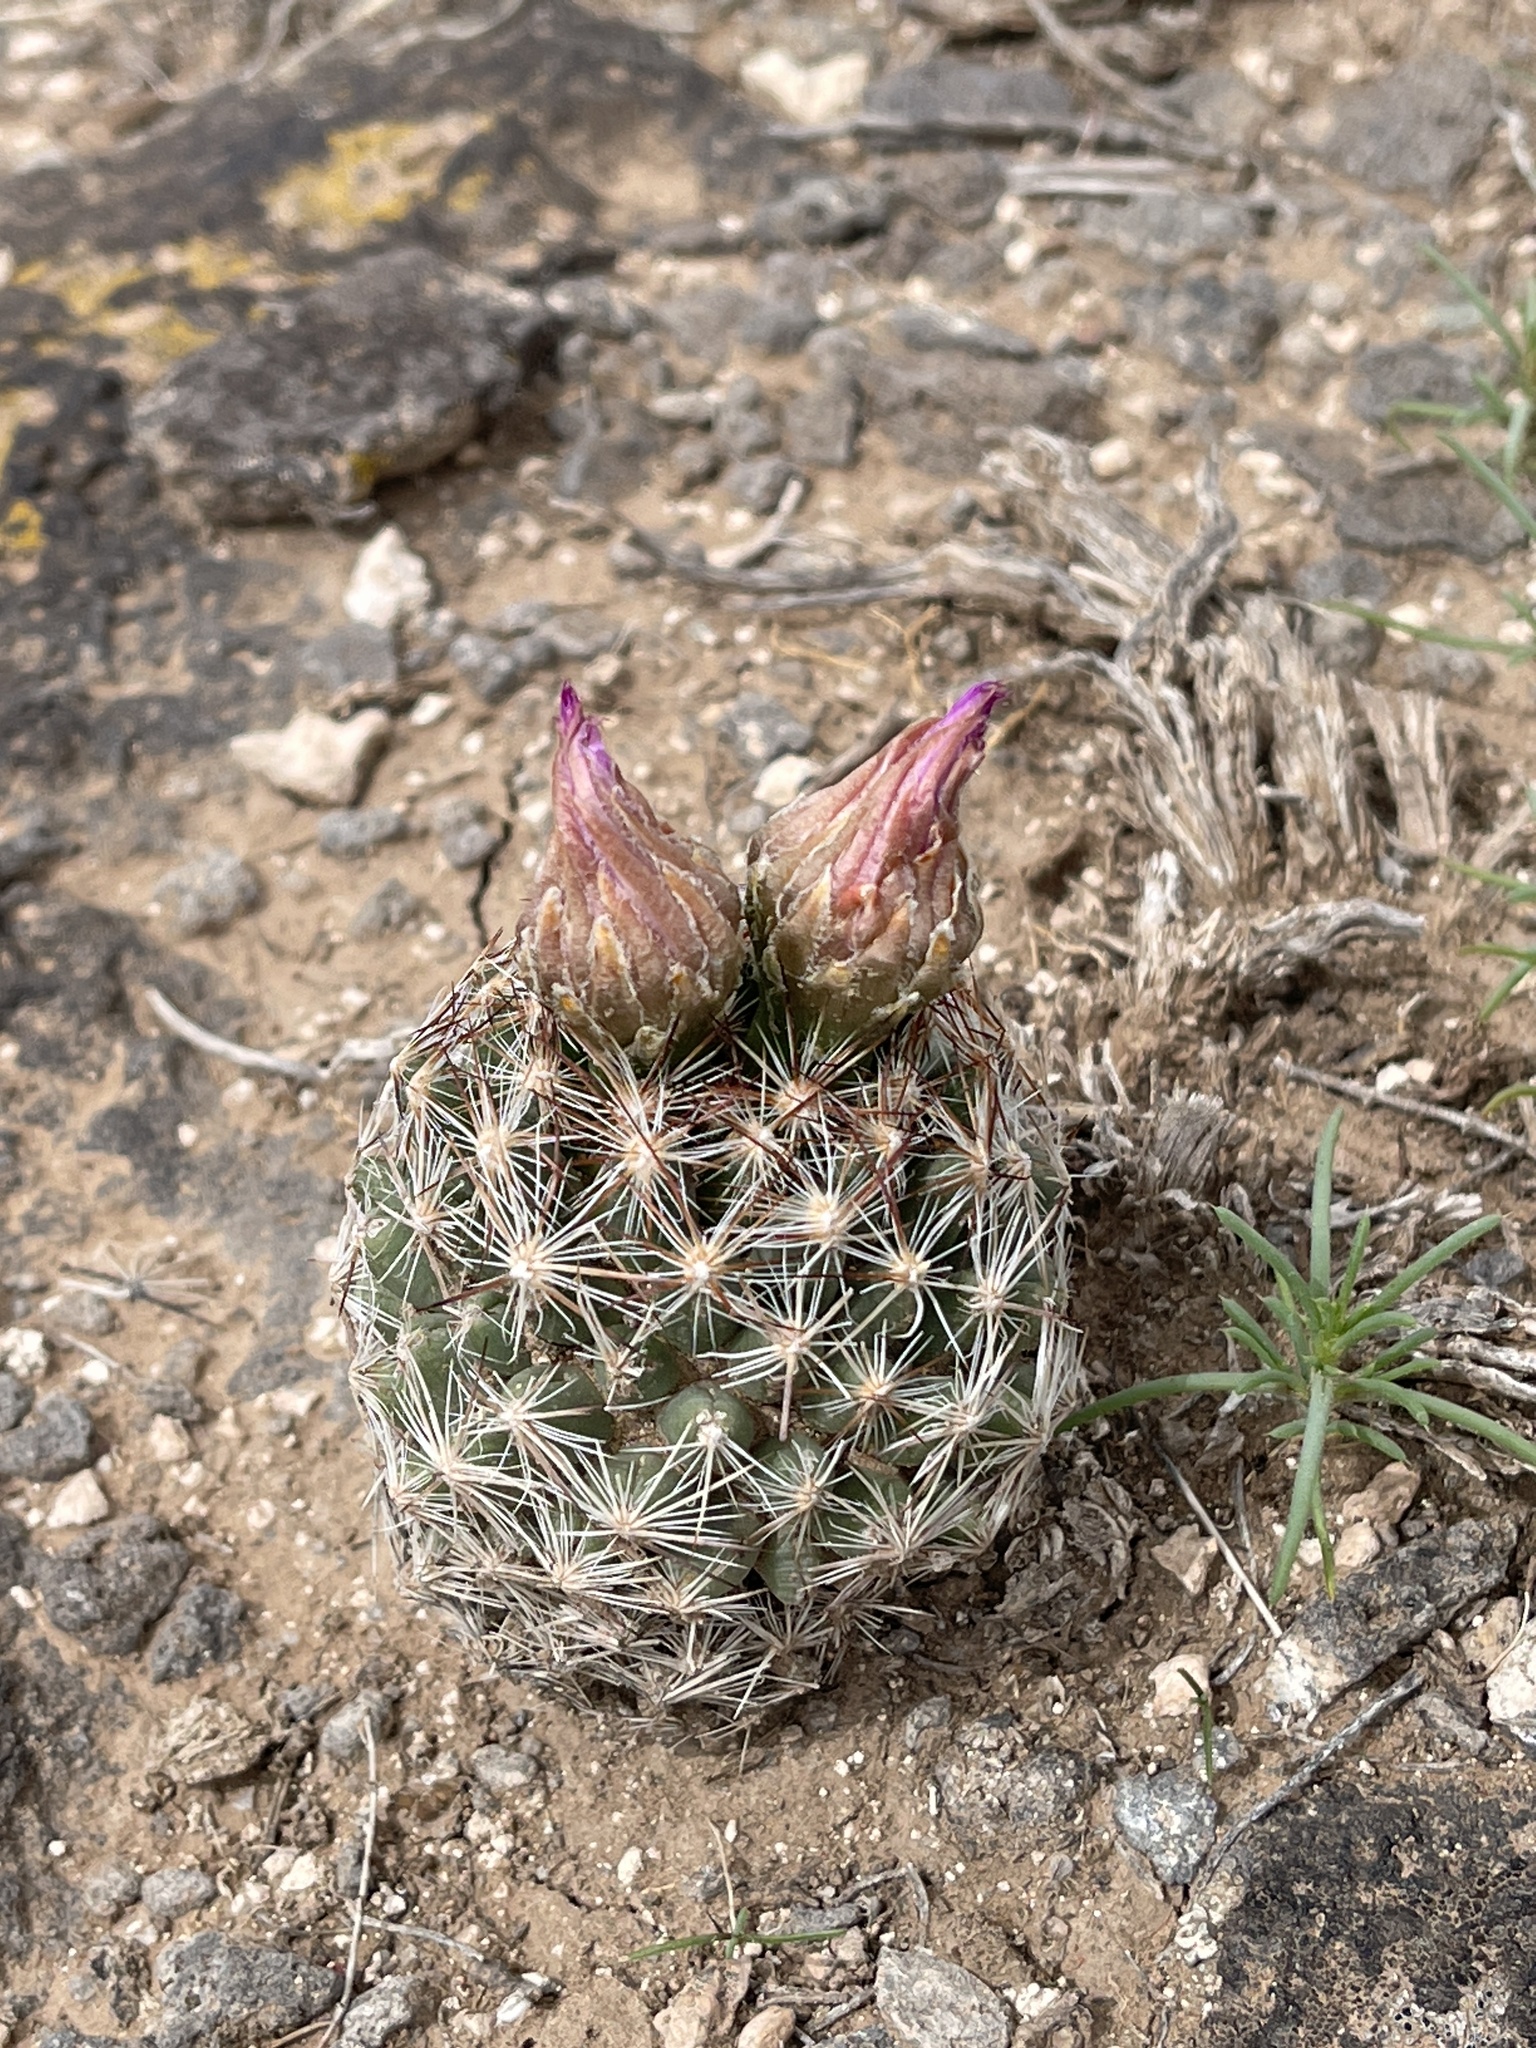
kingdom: Plantae
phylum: Tracheophyta
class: Magnoliopsida
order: Caryophyllales
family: Cactaceae
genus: Pelecyphora
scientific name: Pelecyphora vivipara
